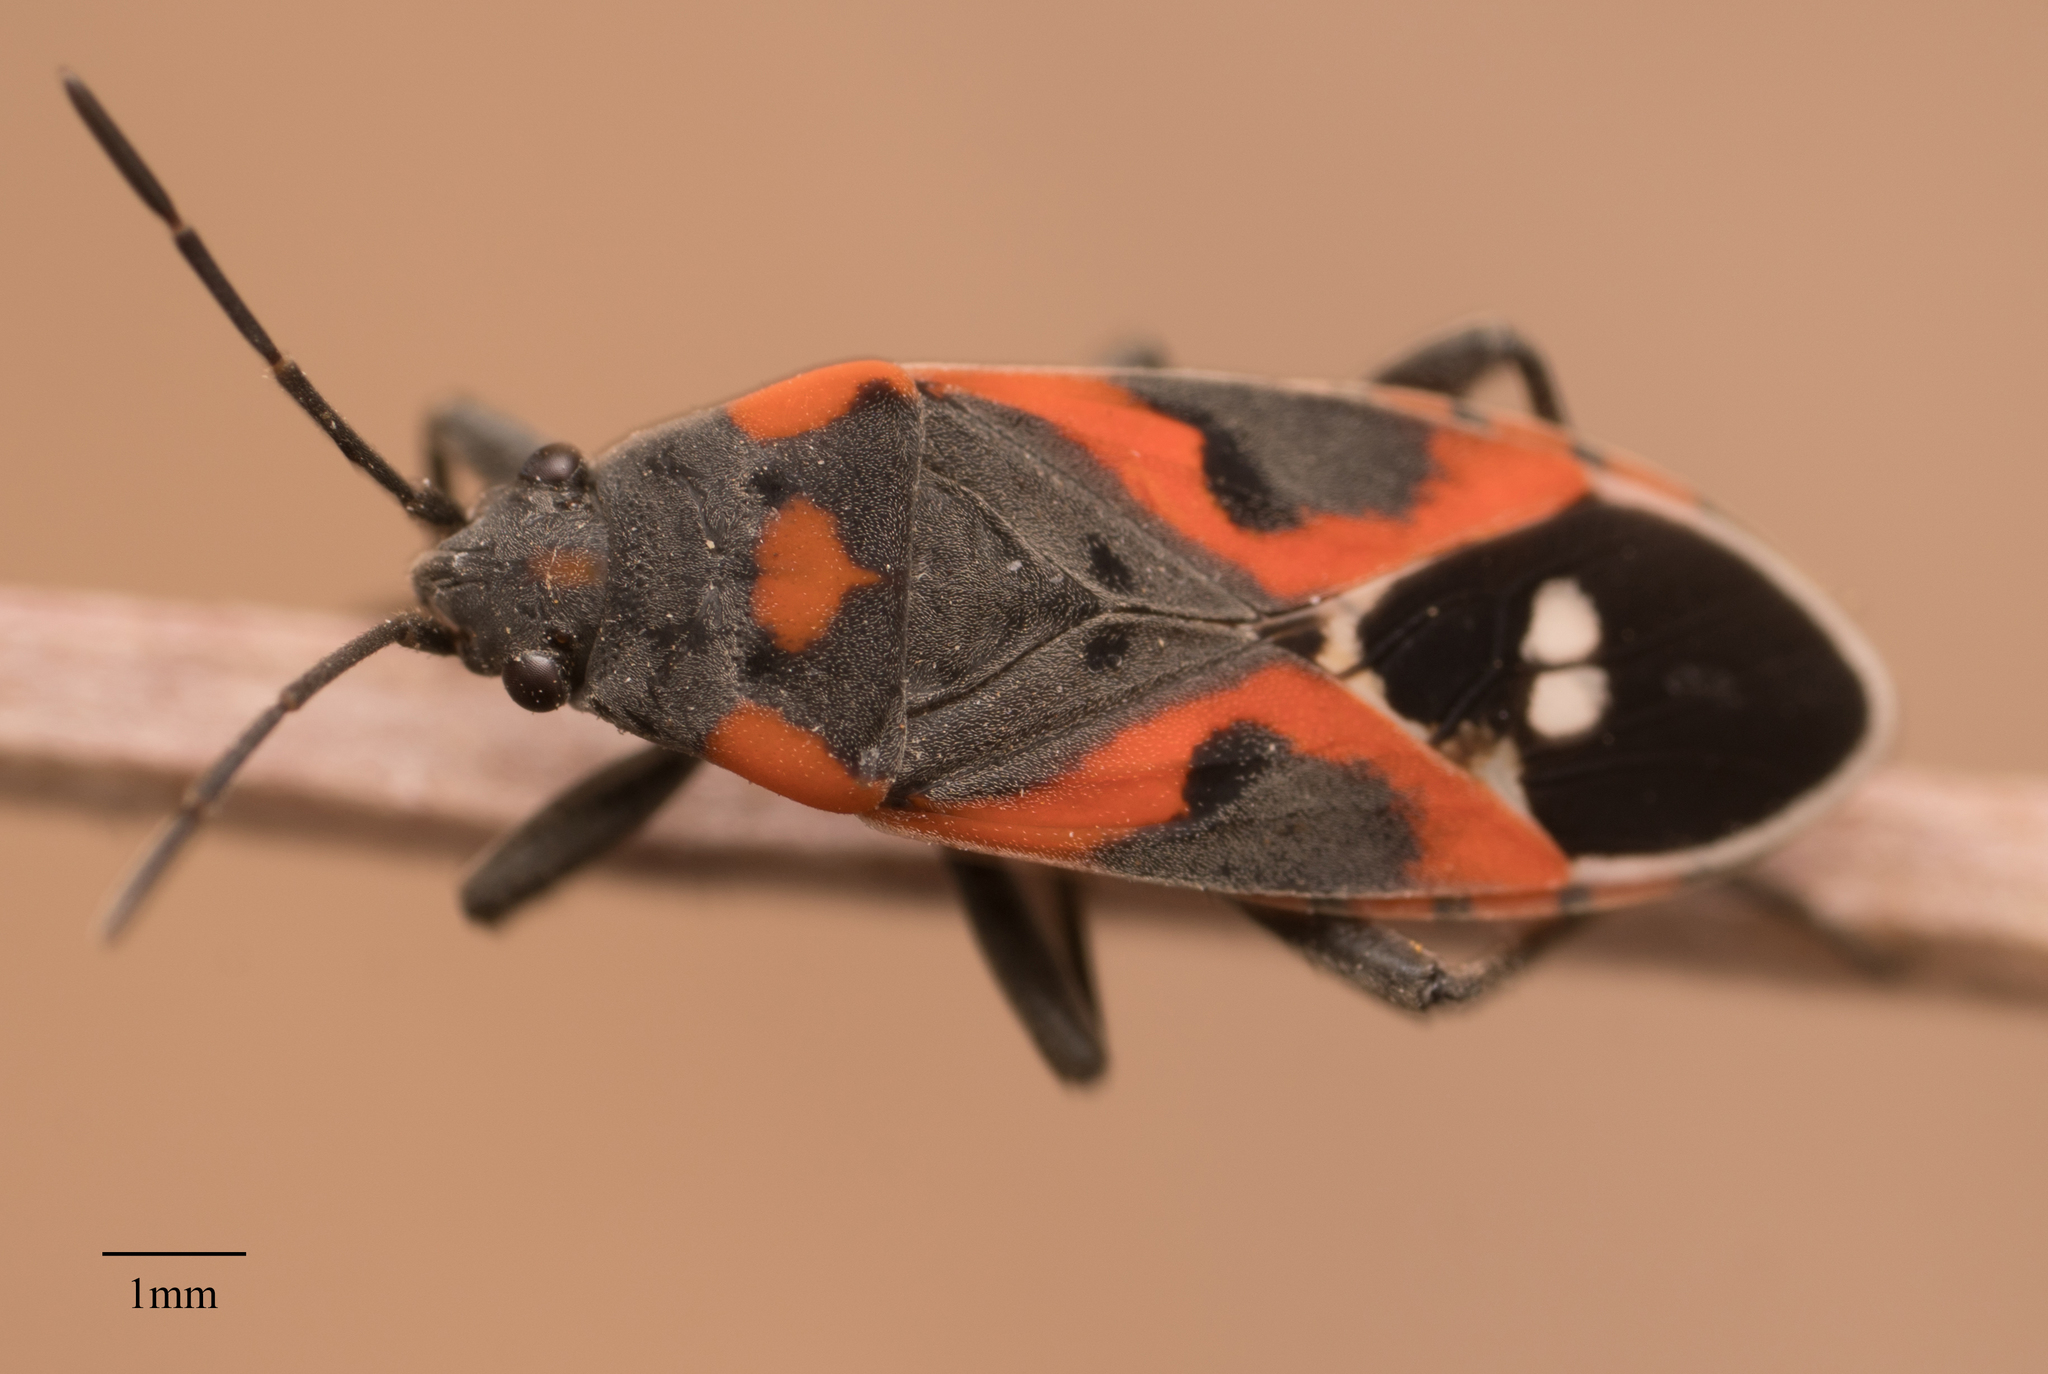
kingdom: Animalia
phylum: Arthropoda
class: Insecta
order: Hemiptera
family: Lygaeidae
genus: Lygaeus
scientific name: Lygaeus kalmii
